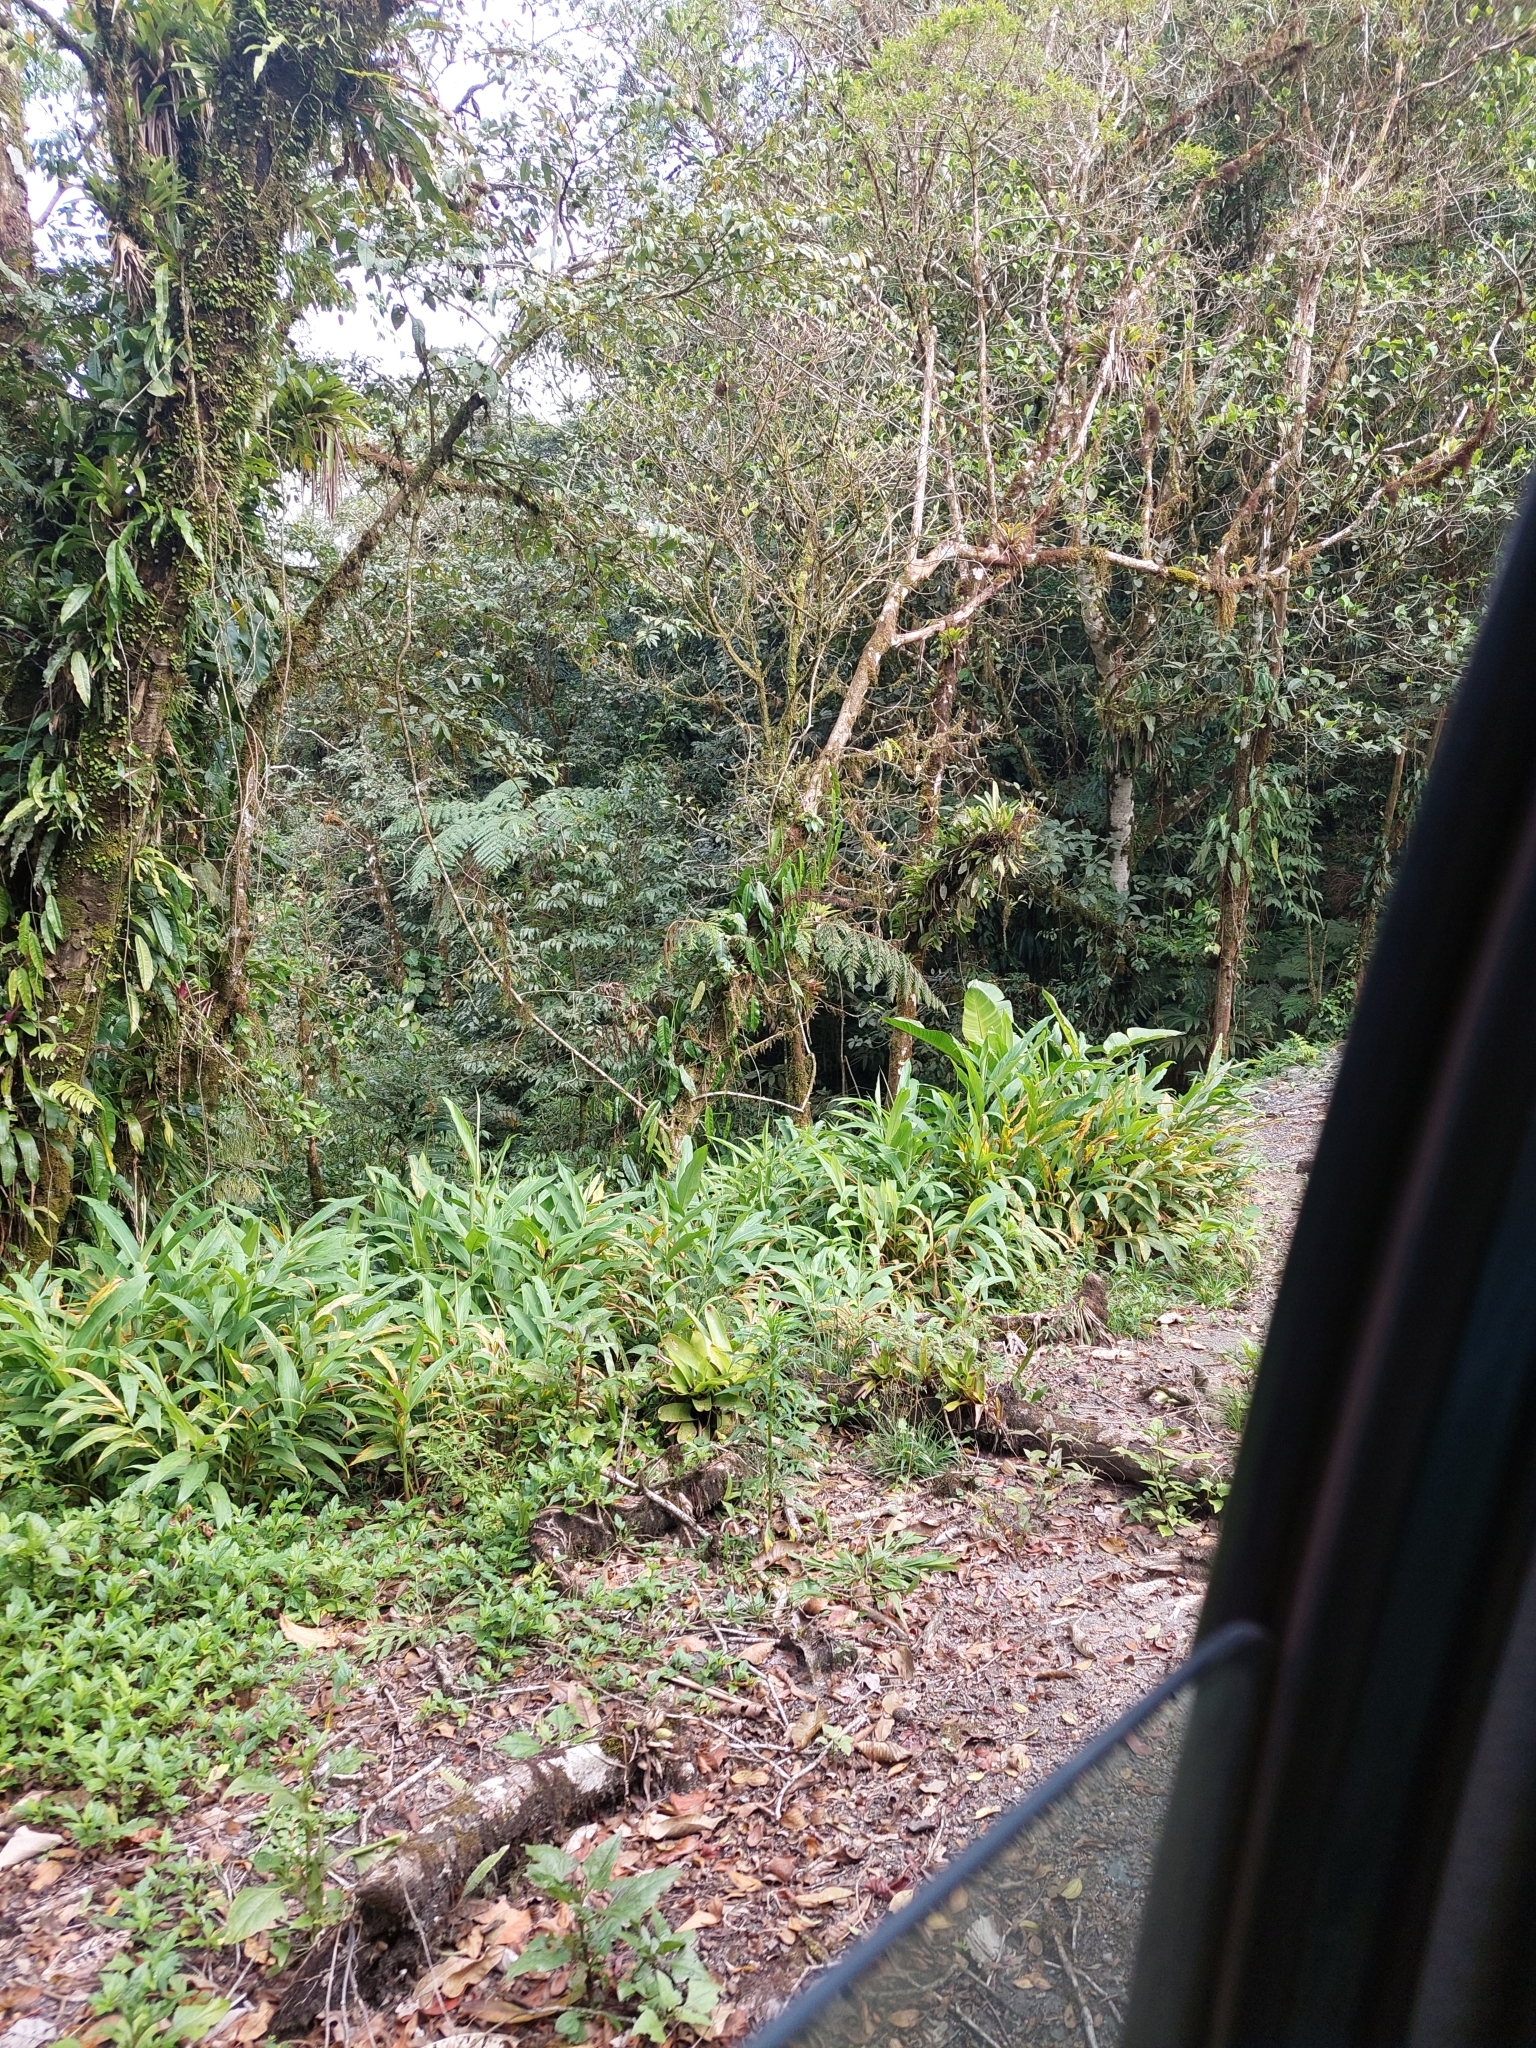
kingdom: Plantae
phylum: Tracheophyta
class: Liliopsida
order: Zingiberales
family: Zingiberaceae
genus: Hedychium
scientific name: Hedychium coronarium
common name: White garland-lily
